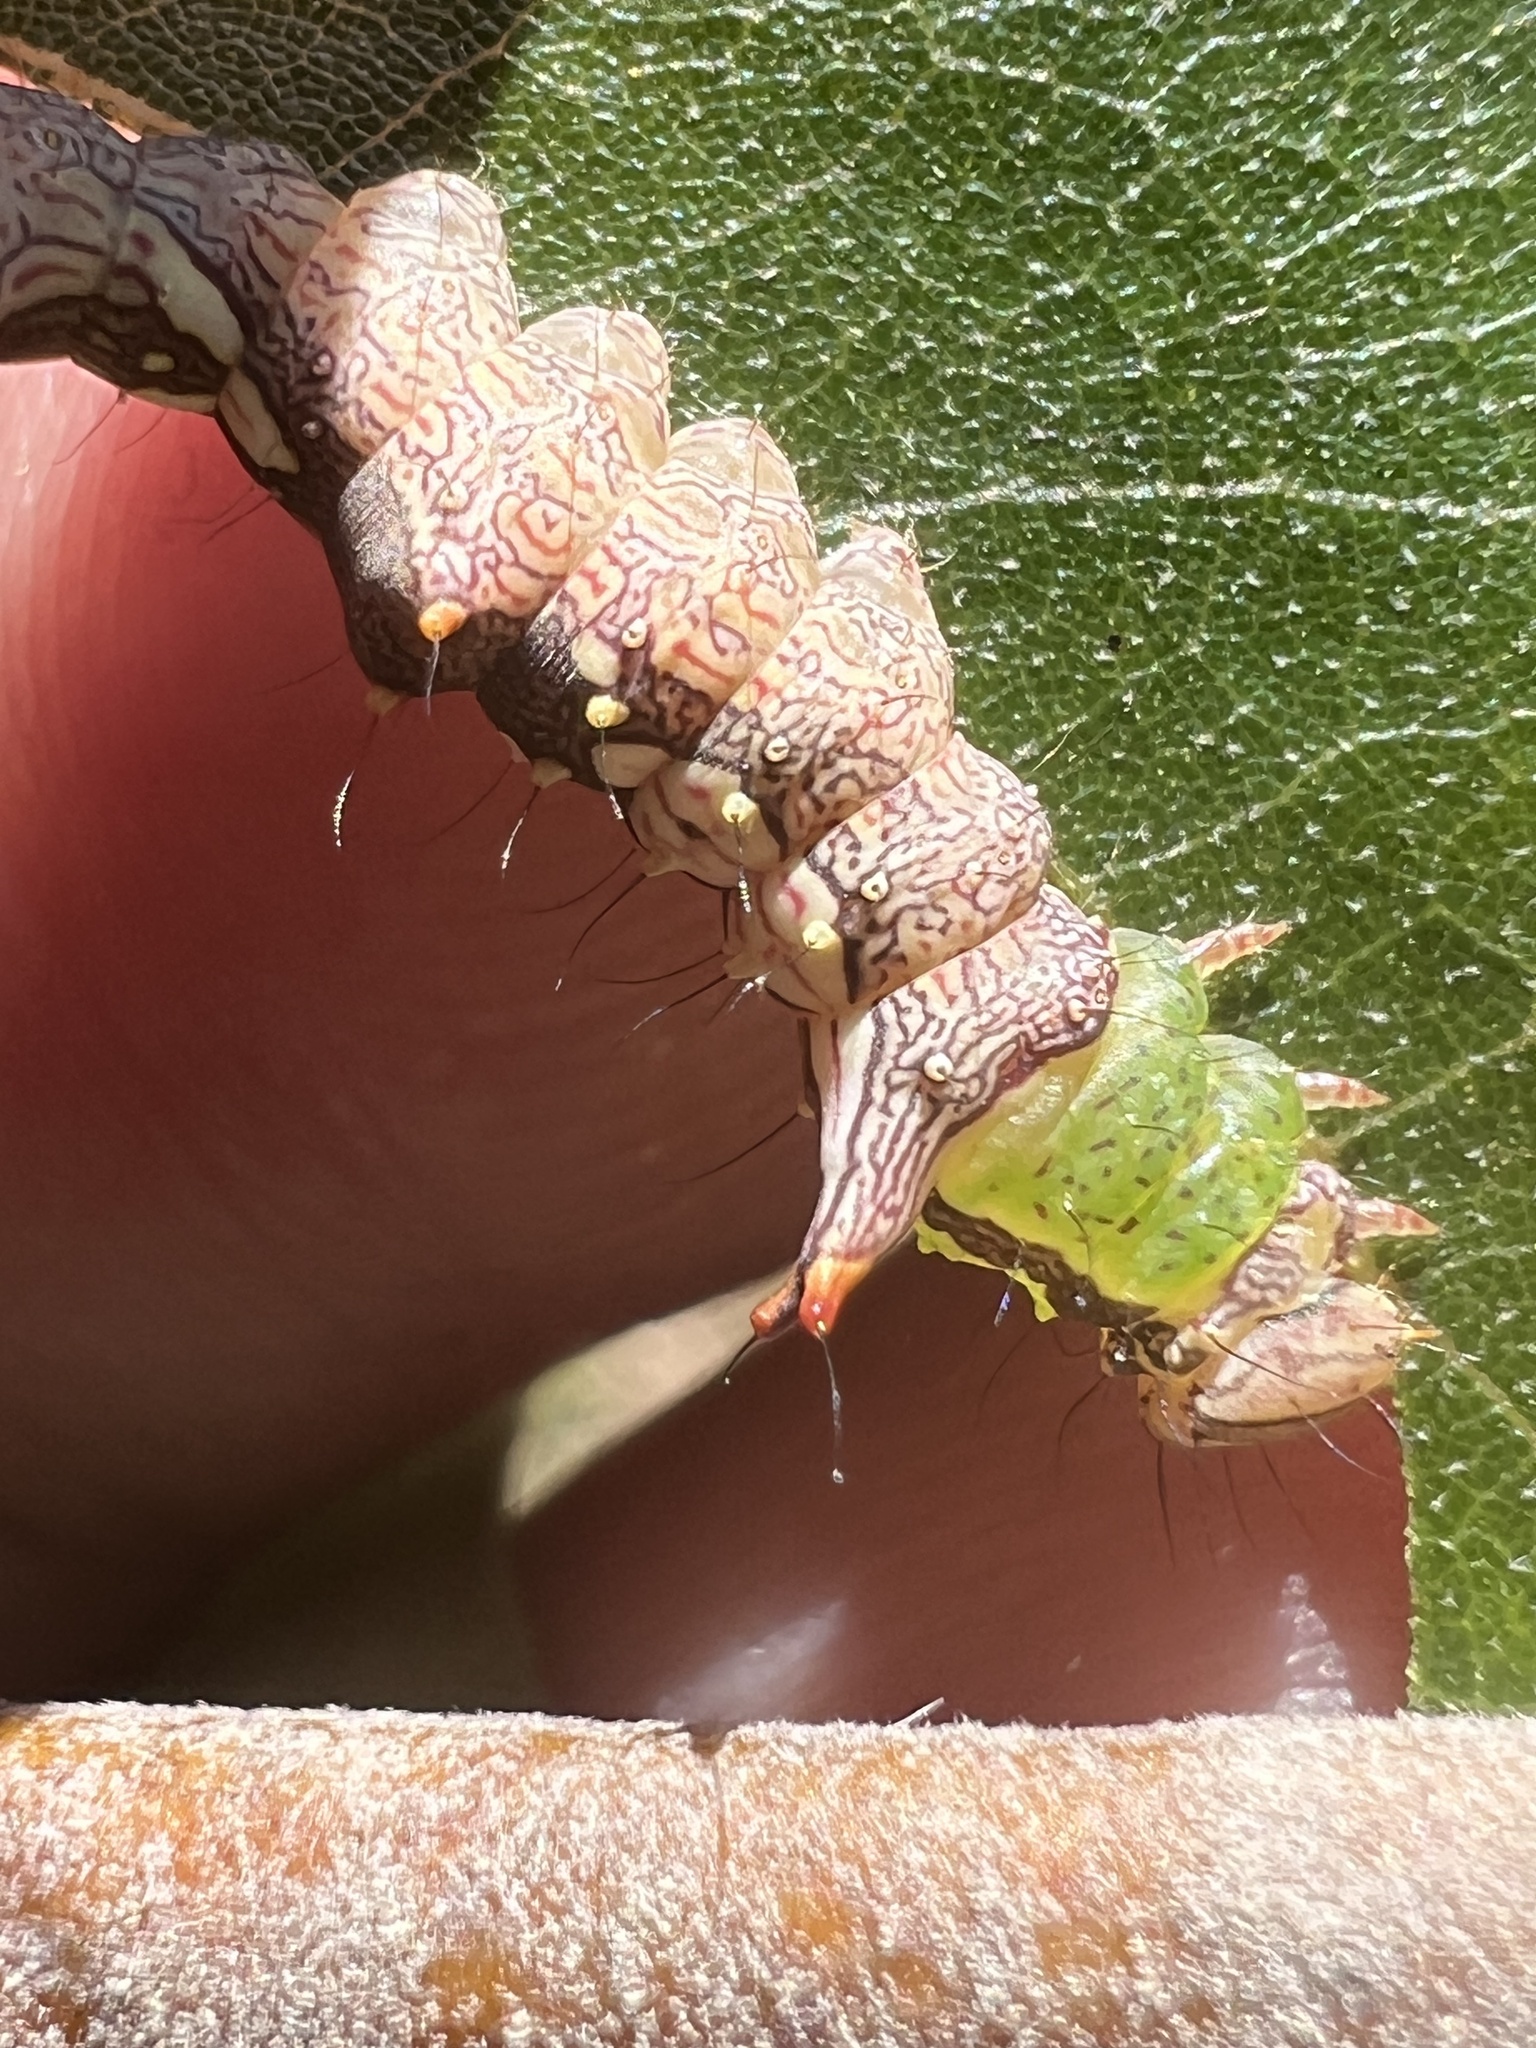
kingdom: Animalia
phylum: Arthropoda
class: Insecta
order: Lepidoptera
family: Notodontidae
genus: Schizura
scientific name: Schizura ipomaeae
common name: Morning-glory prominent
